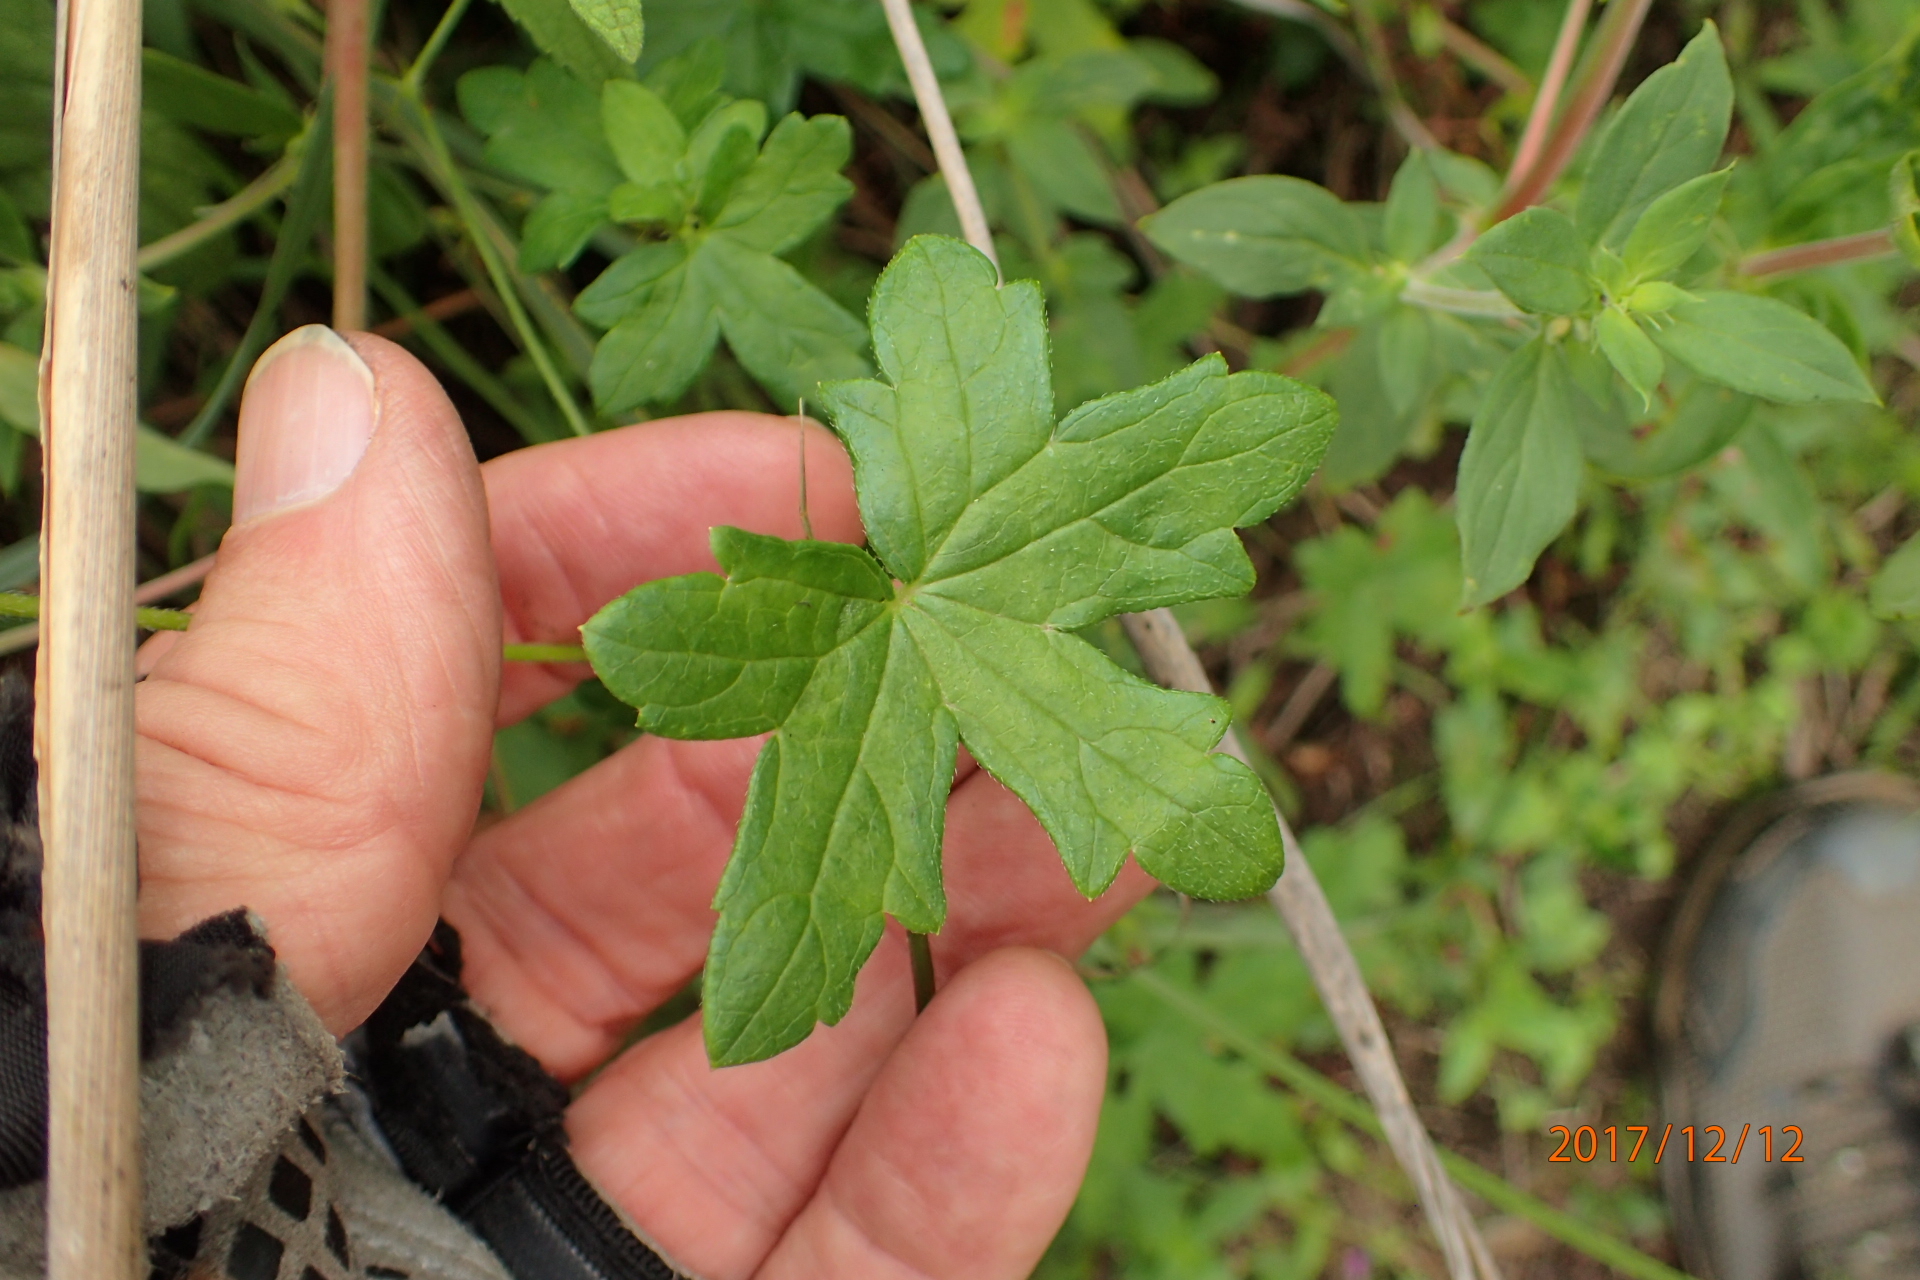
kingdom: Plantae
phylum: Tracheophyta
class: Magnoliopsida
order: Geraniales
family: Geraniaceae
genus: Geranium
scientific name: Geranium flanaganii
